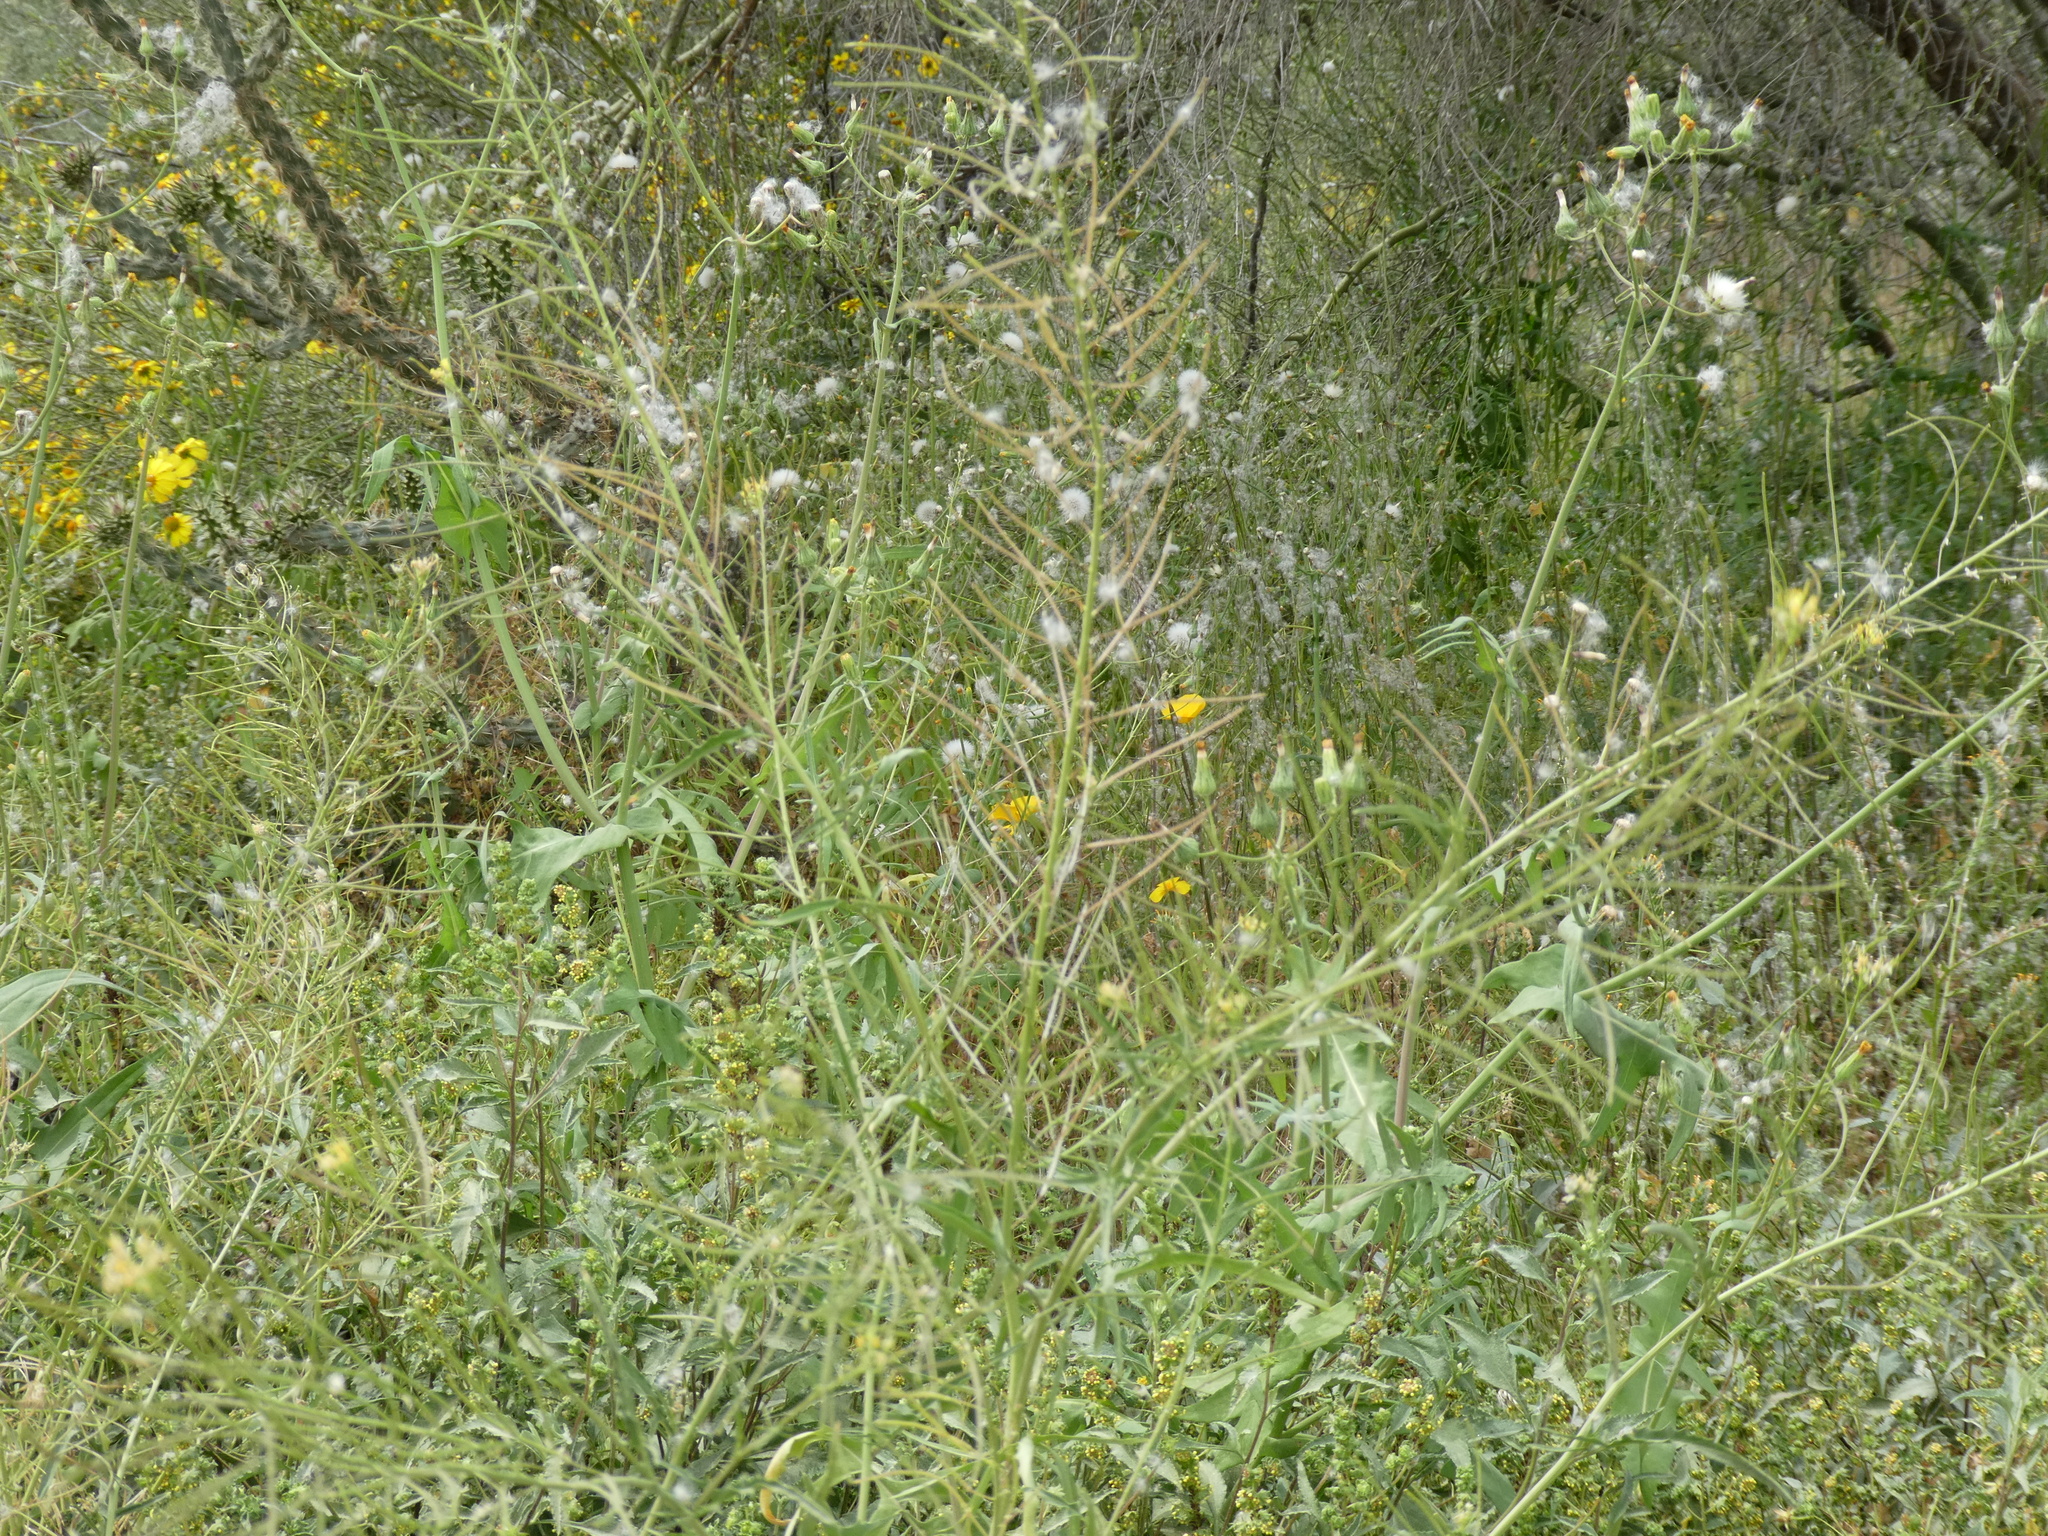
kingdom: Plantae
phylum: Tracheophyta
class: Magnoliopsida
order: Brassicales
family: Brassicaceae
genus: Sisymbrium
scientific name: Sisymbrium irio
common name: London rocket
